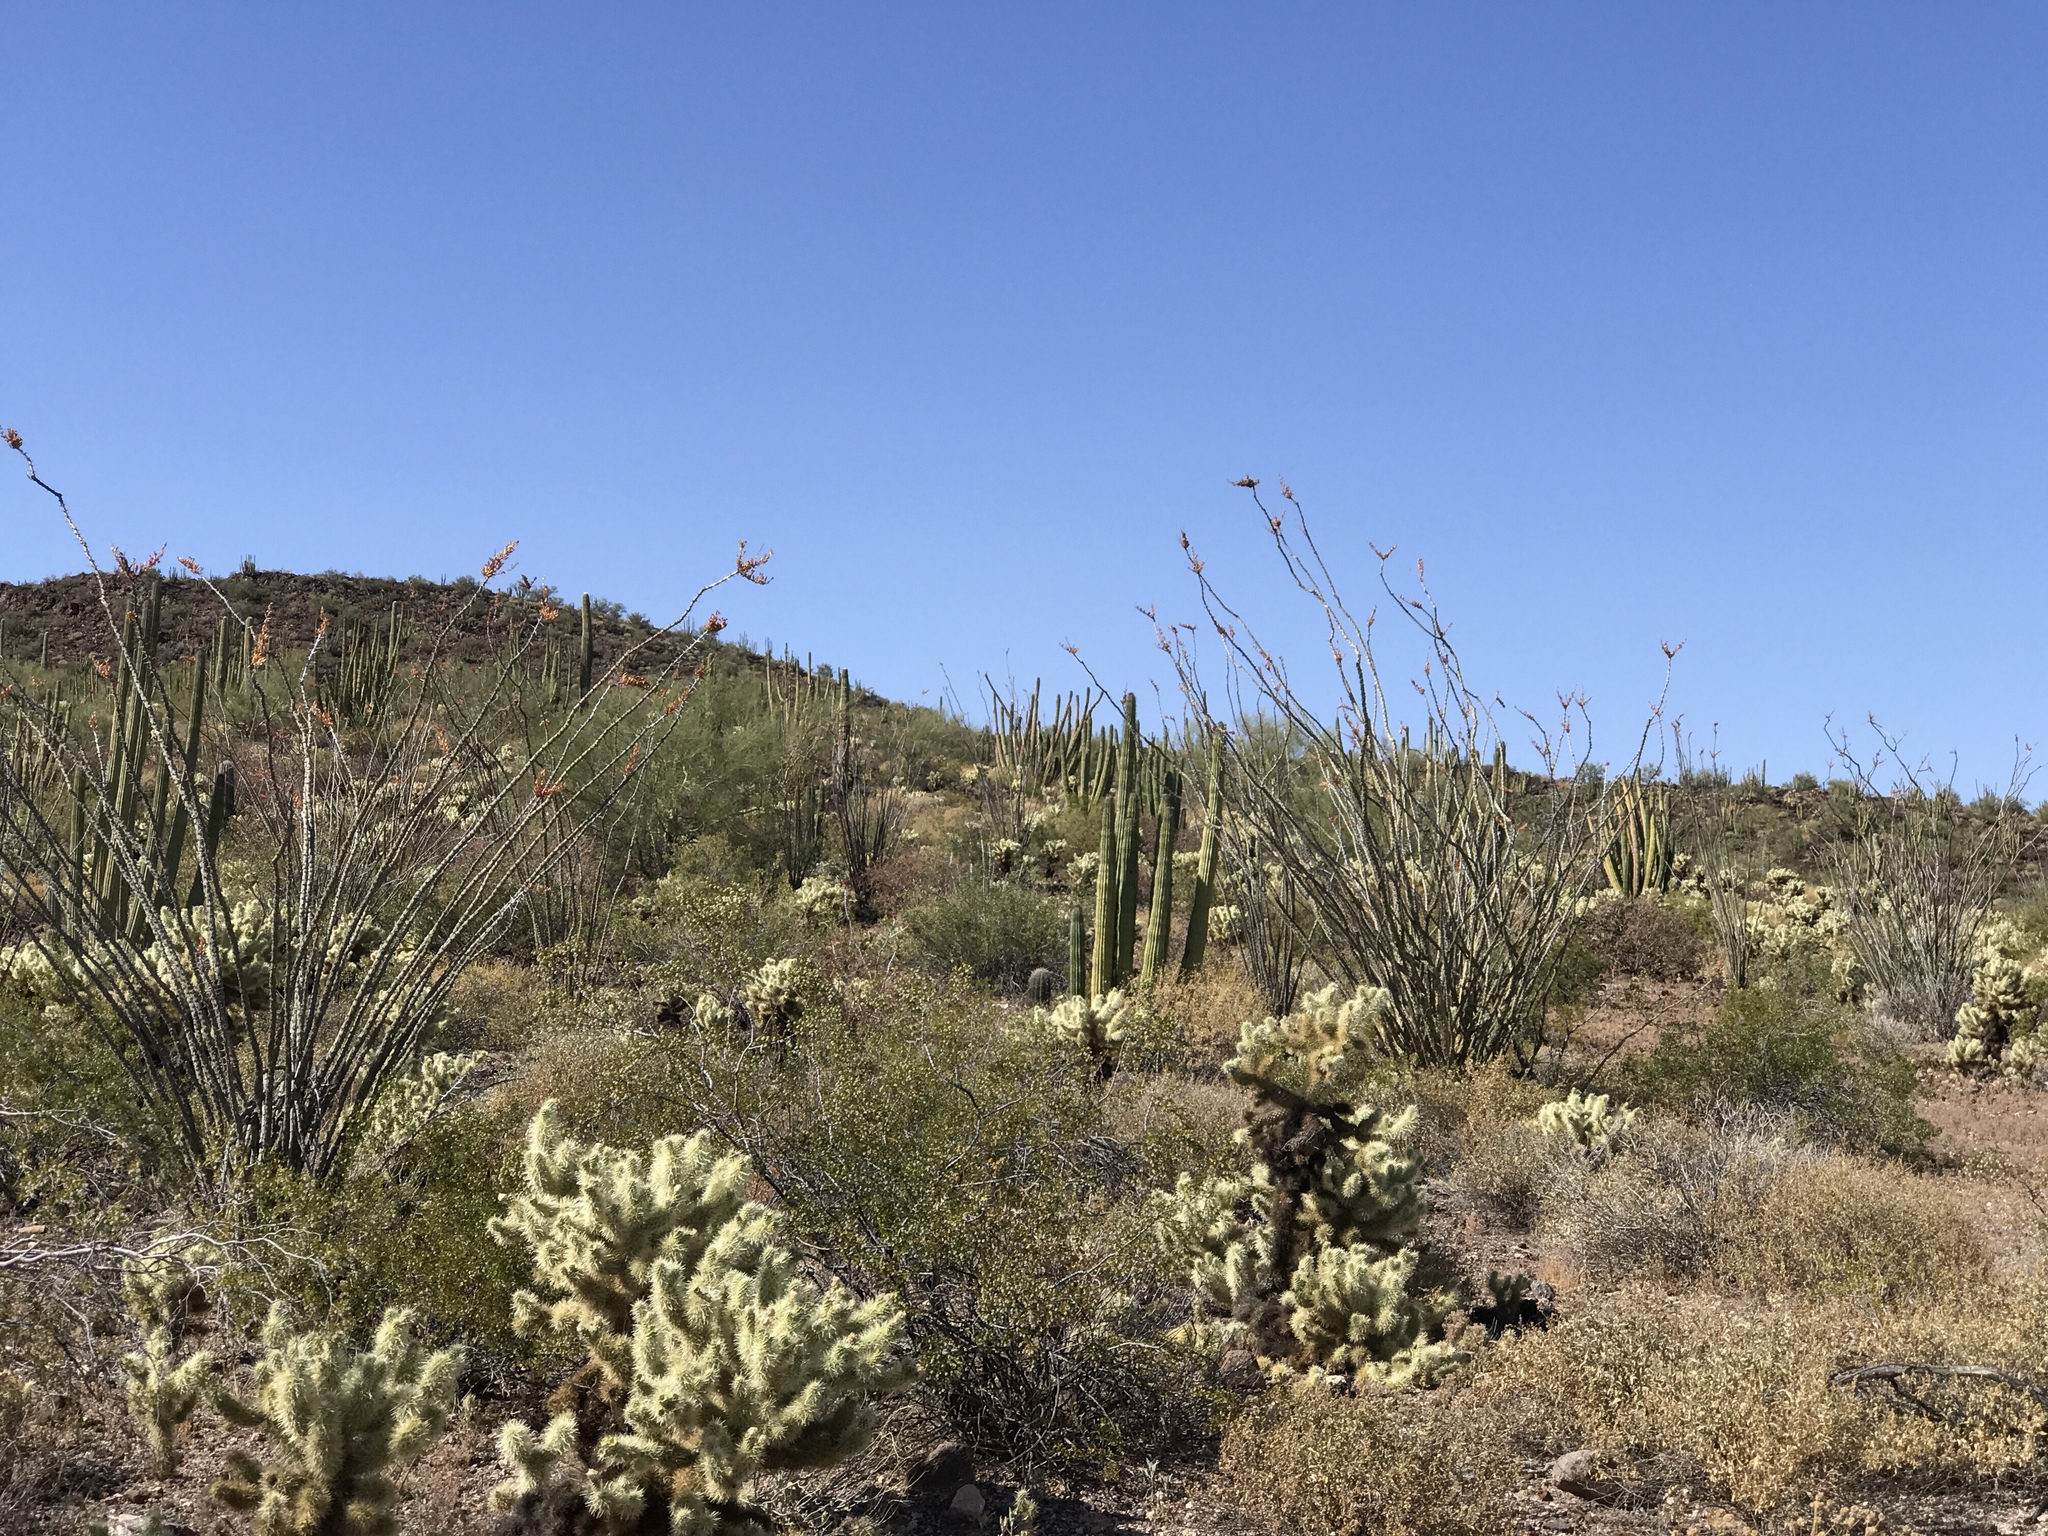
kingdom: Plantae
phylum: Tracheophyta
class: Magnoliopsida
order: Ericales
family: Fouquieriaceae
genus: Fouquieria
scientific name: Fouquieria splendens
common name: Vine-cactus
